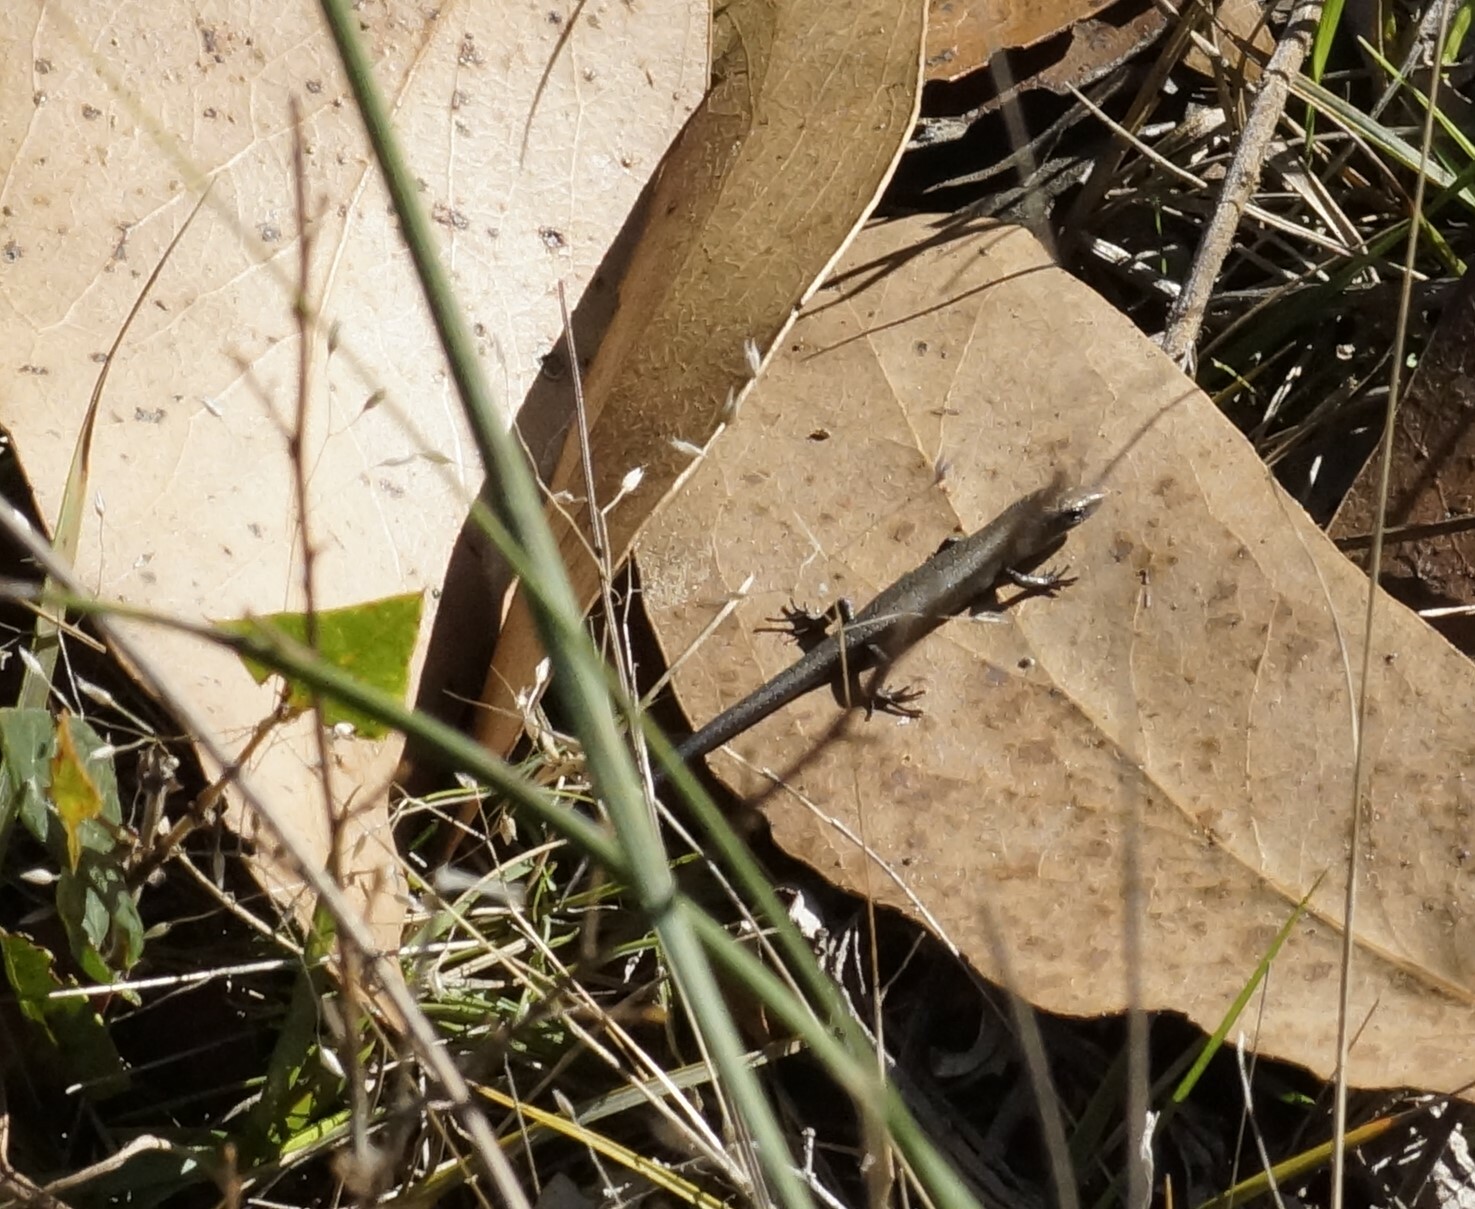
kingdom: Animalia
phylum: Chordata
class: Squamata
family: Scincidae
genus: Lampropholis
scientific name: Lampropholis guichenoti
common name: Garden skink
